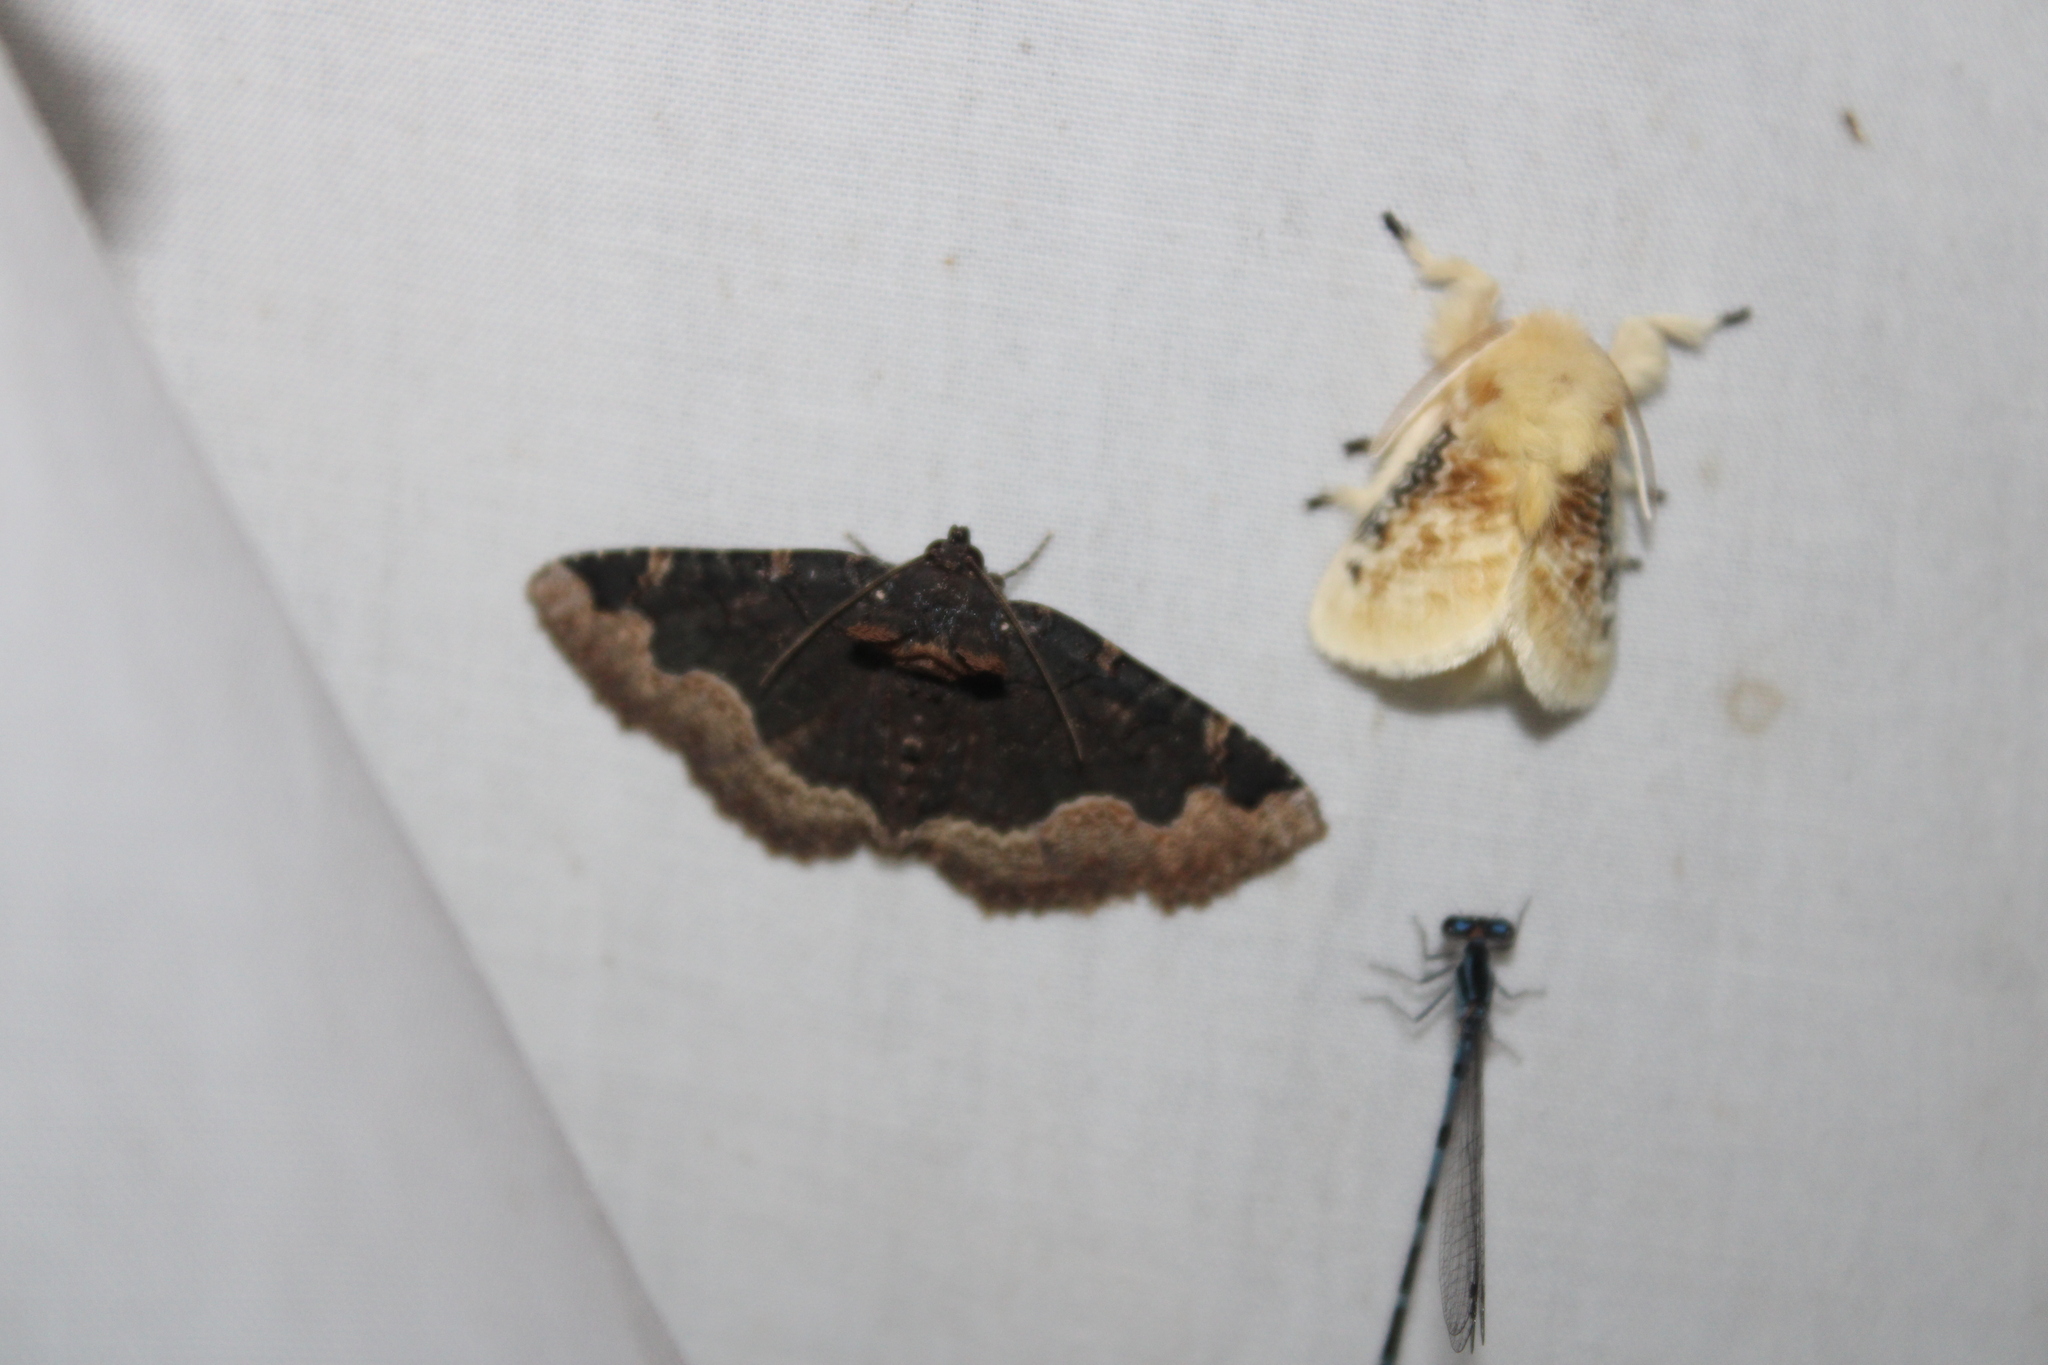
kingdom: Animalia
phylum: Arthropoda
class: Insecta
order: Lepidoptera
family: Erebidae
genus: Zale
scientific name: Zale horrida
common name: Horrid zale moth
